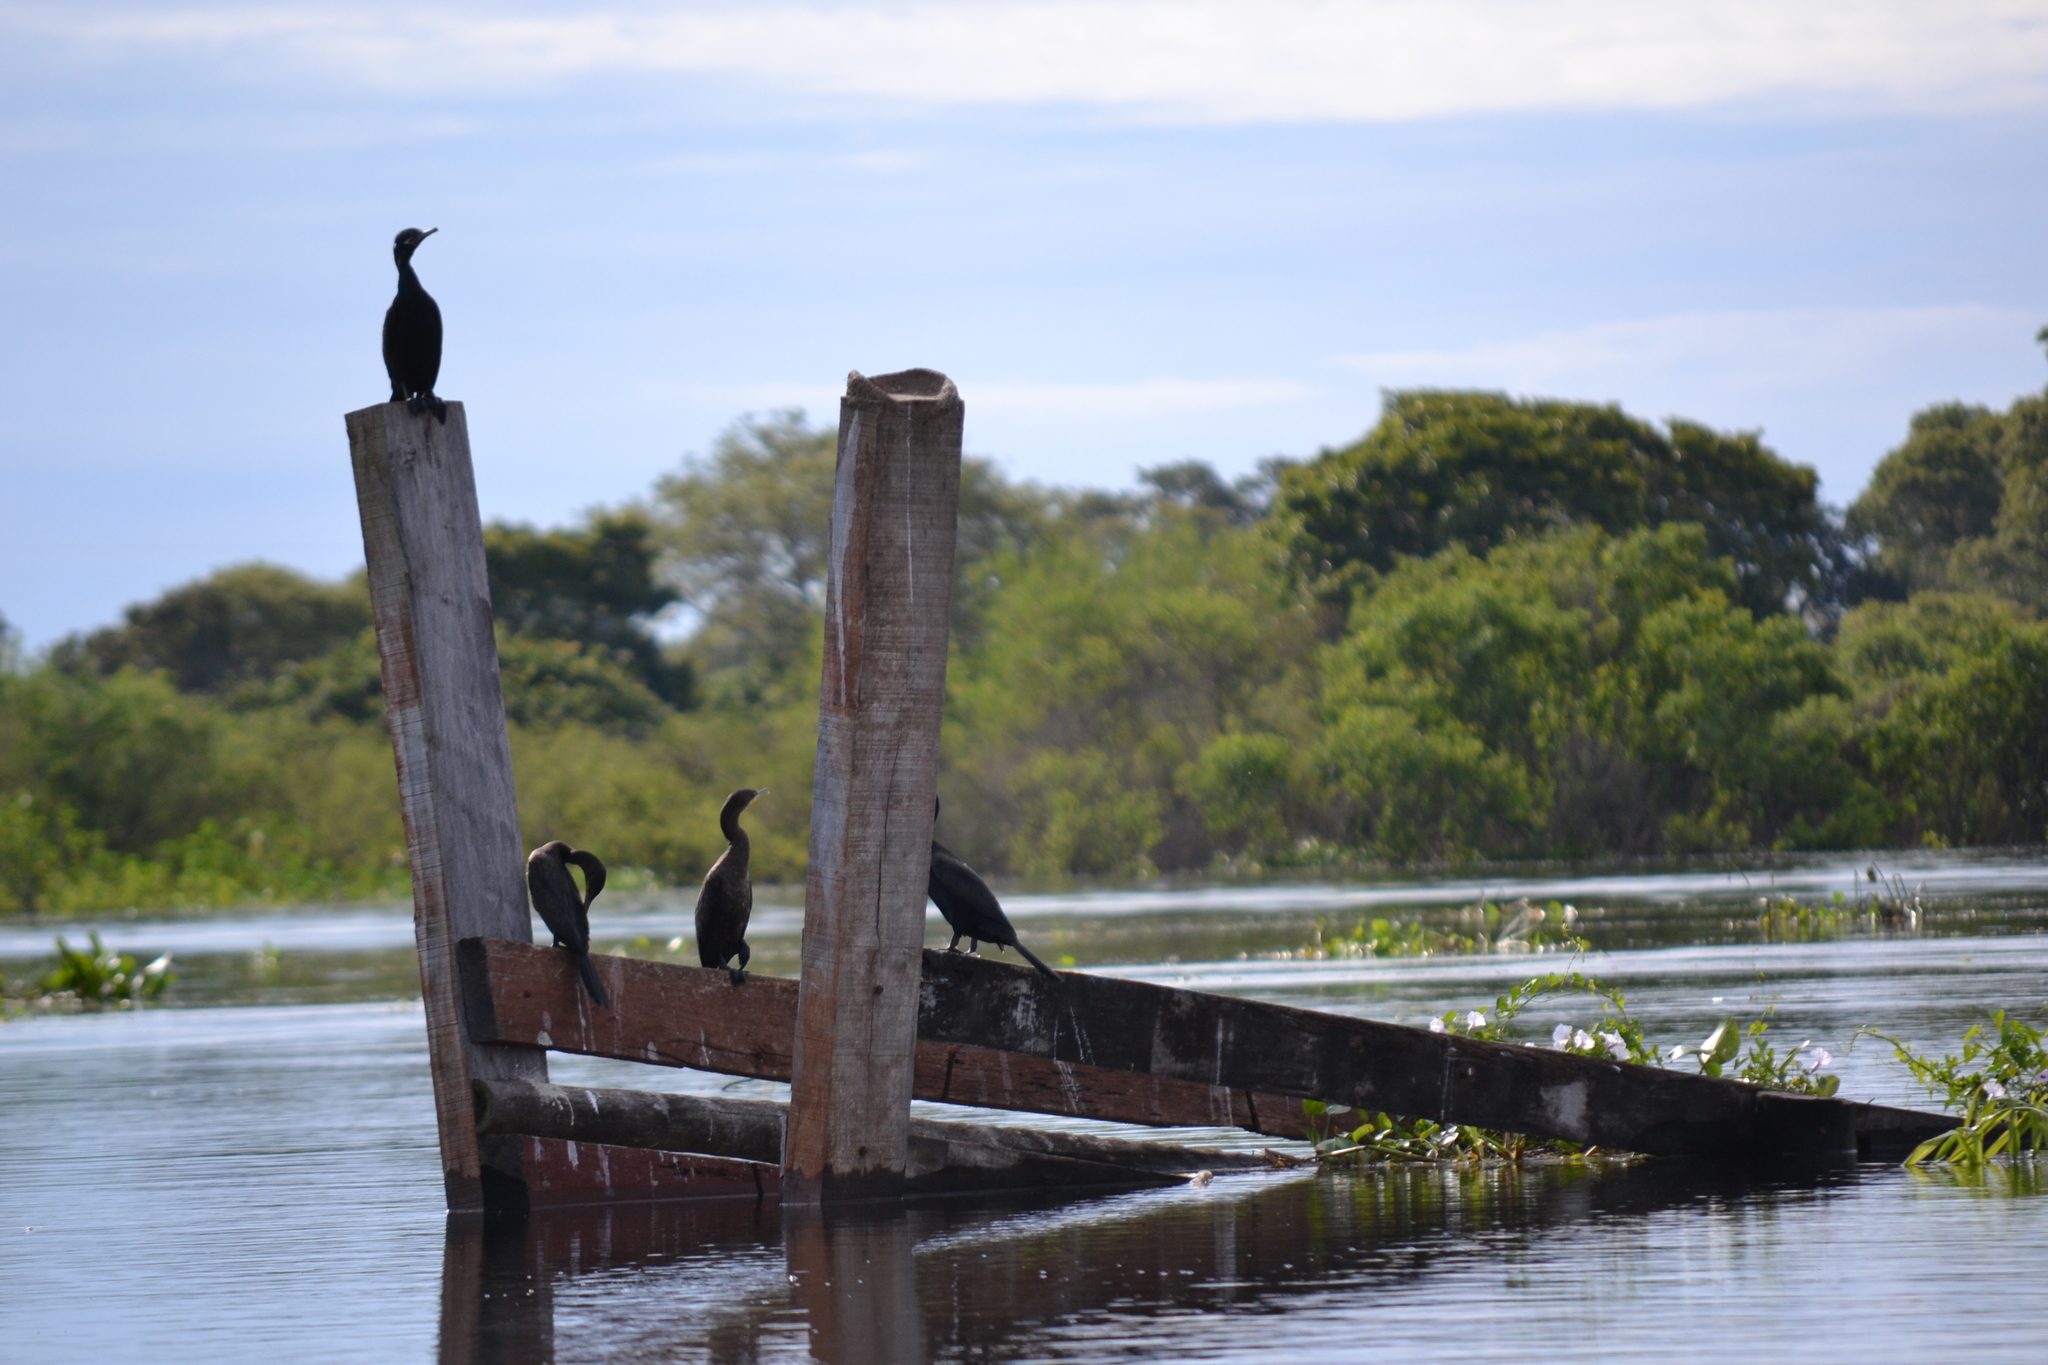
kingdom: Animalia
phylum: Chordata
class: Aves
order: Suliformes
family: Phalacrocoracidae
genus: Phalacrocorax
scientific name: Phalacrocorax brasilianus
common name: Neotropic cormorant
